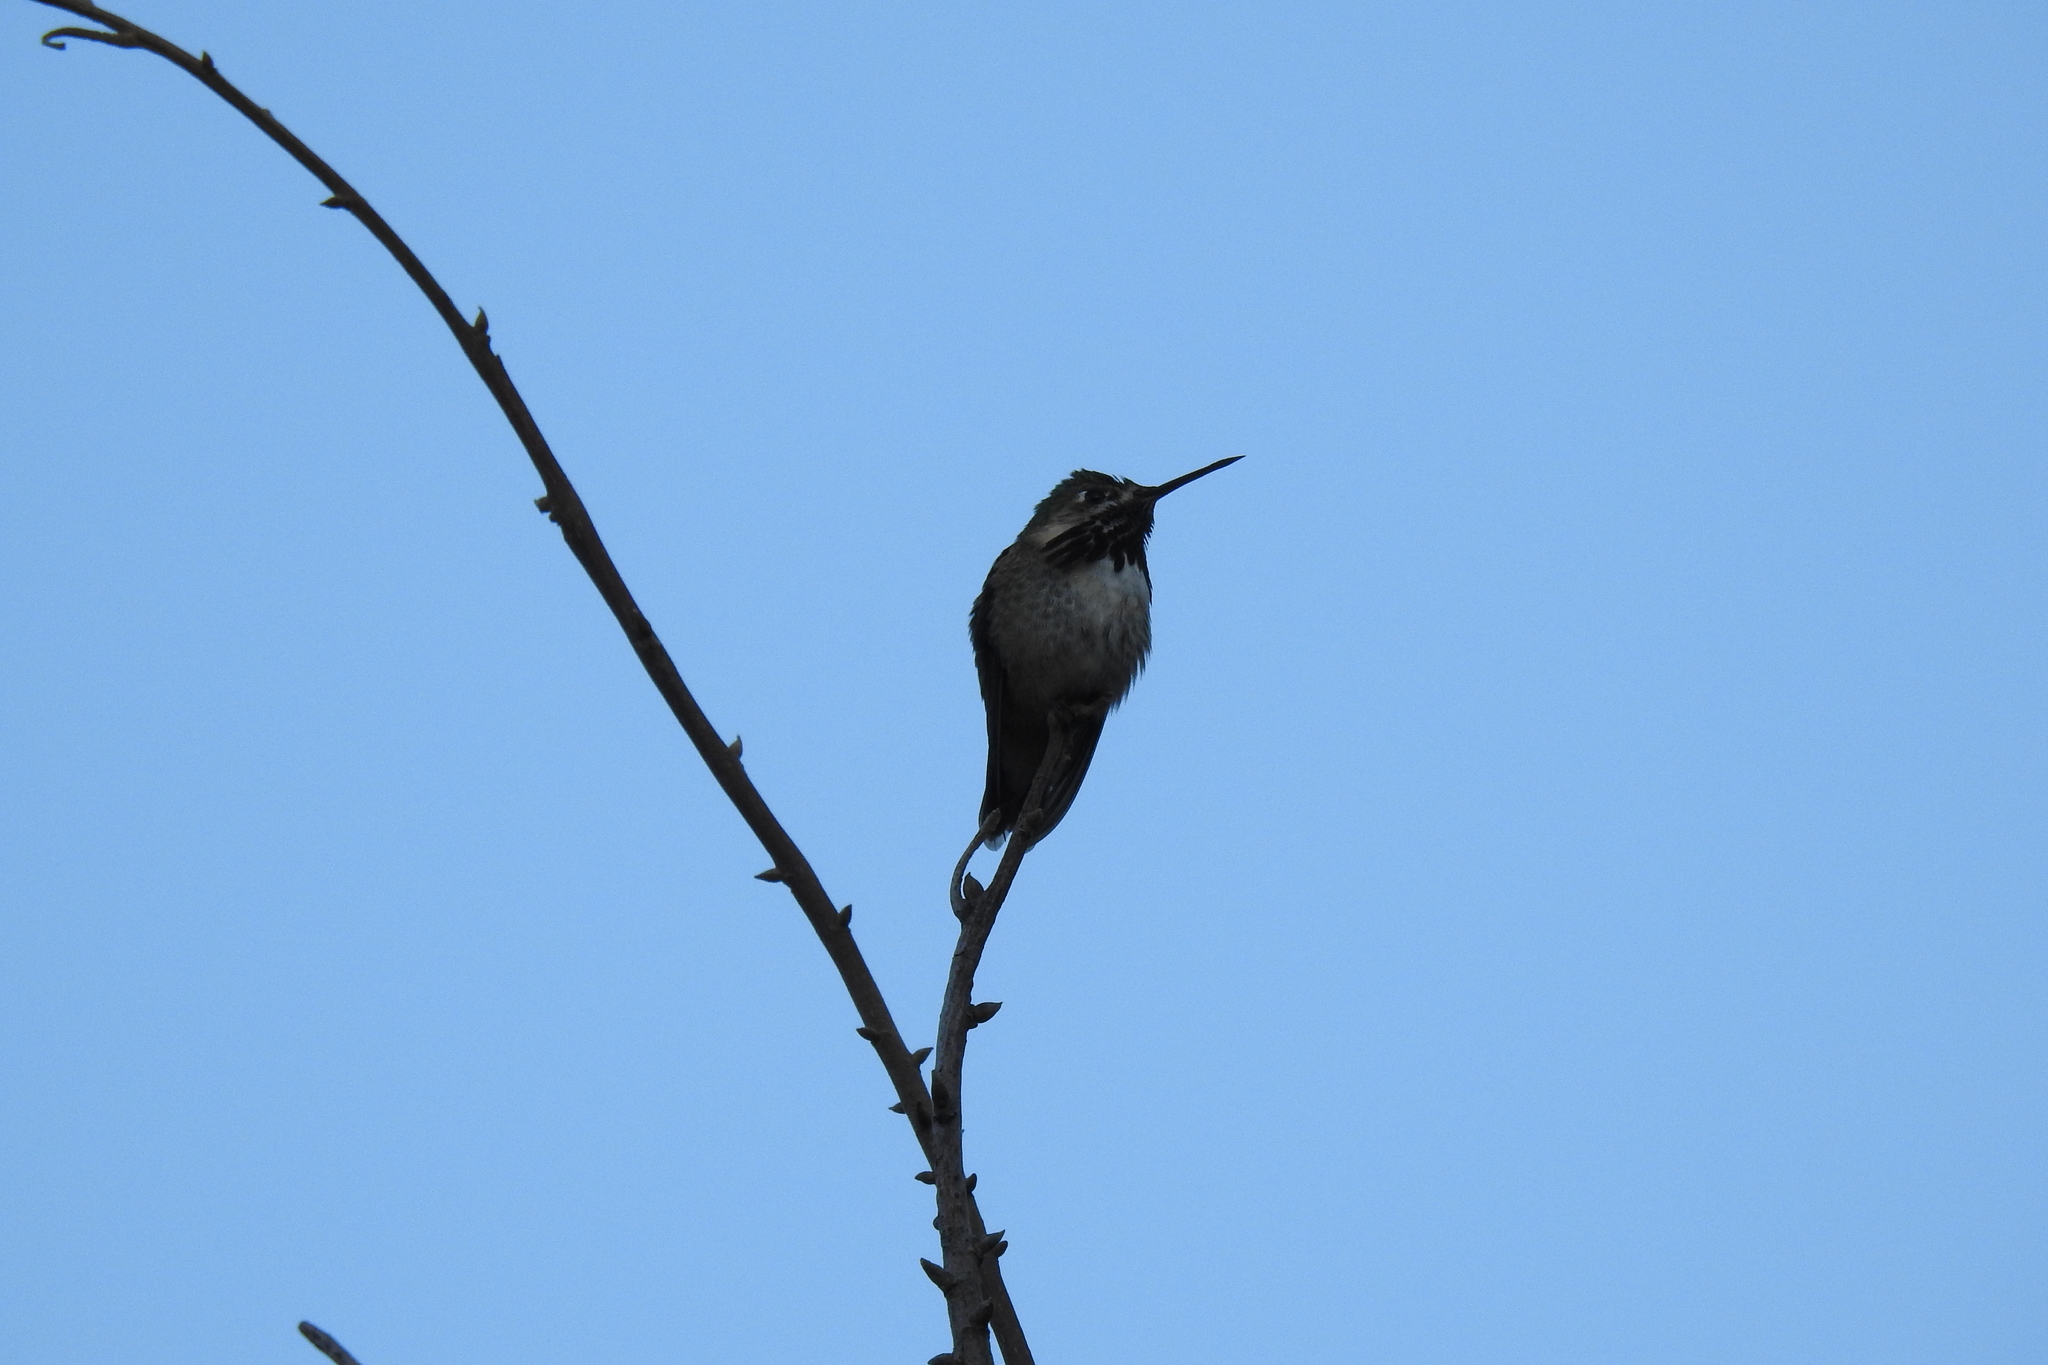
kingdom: Animalia
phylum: Chordata
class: Aves
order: Apodiformes
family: Trochilidae
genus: Selasphorus
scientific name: Selasphorus calliope
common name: Calliope hummingbird
